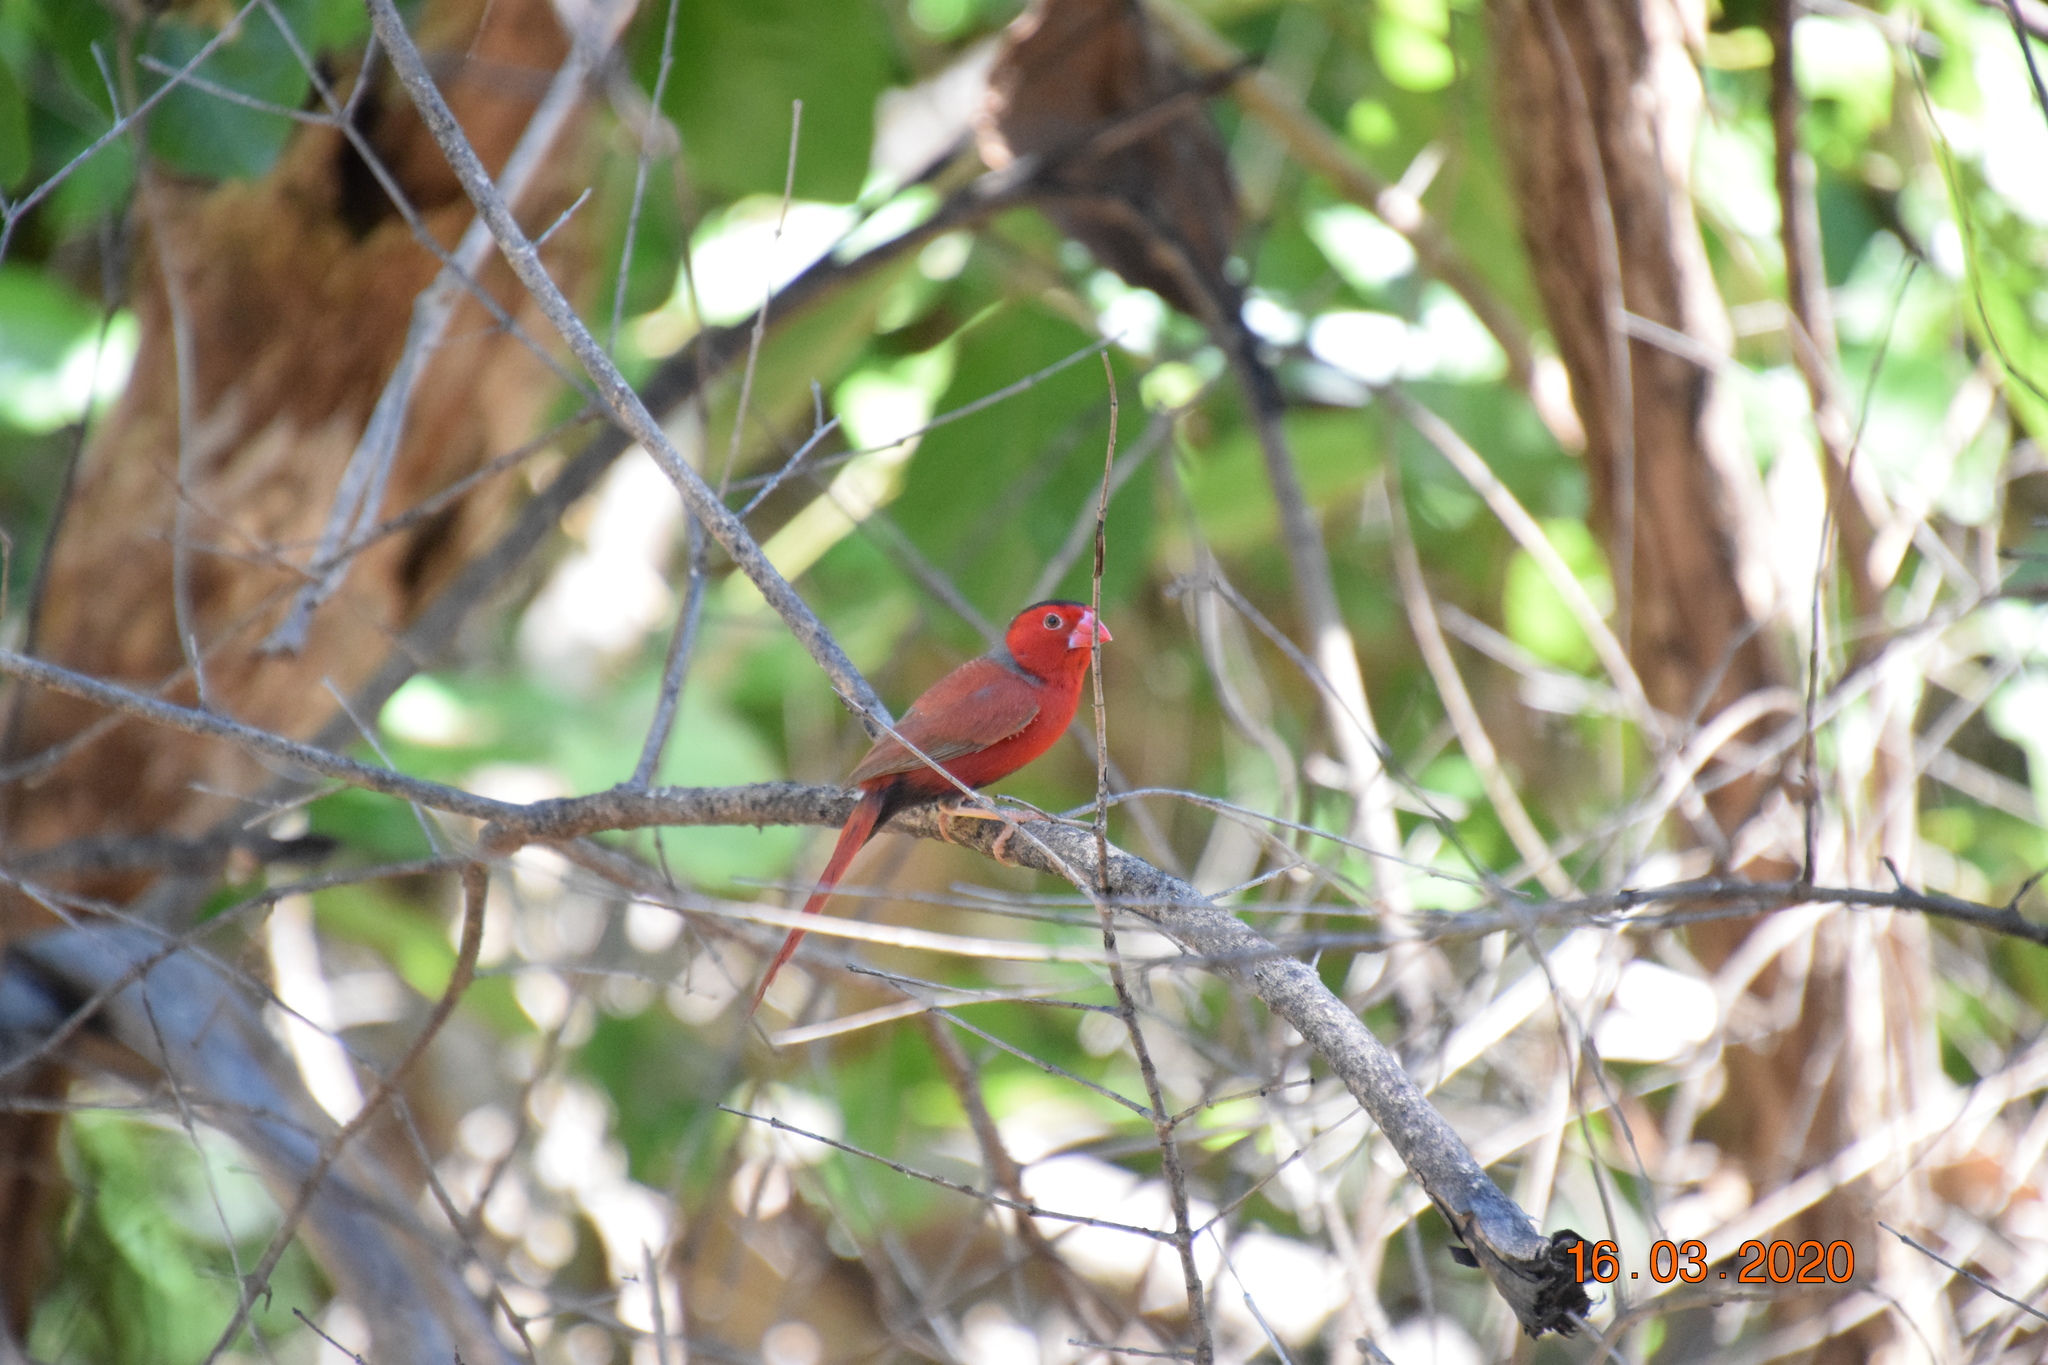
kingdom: Animalia
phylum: Chordata
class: Aves
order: Passeriformes
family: Estrildidae
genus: Neochmia
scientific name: Neochmia phaeton
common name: Crimson finch
